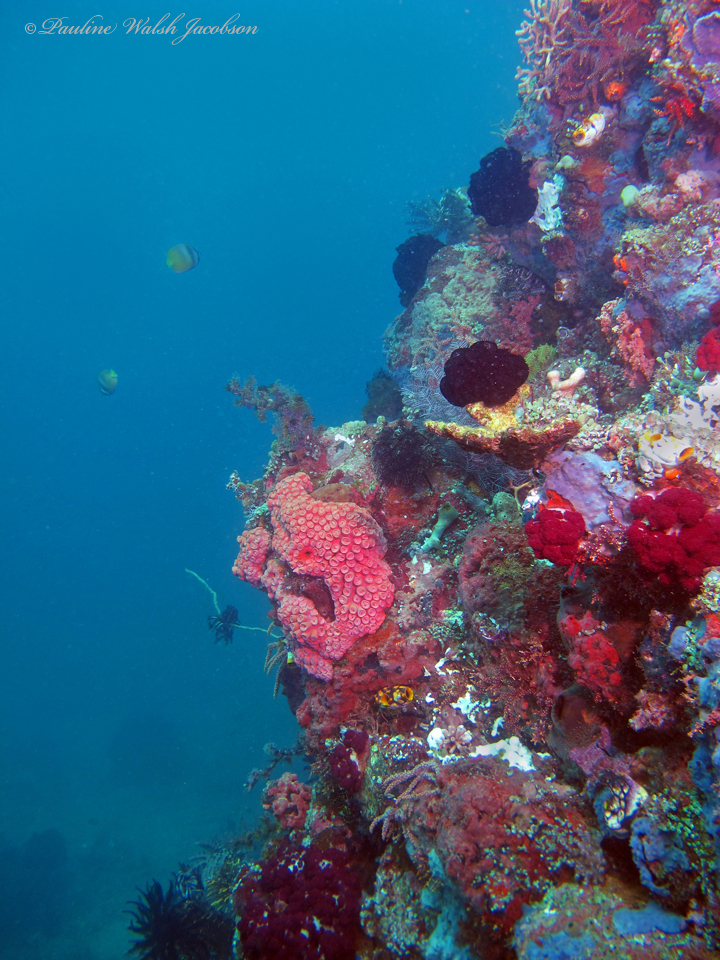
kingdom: Animalia
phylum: Cnidaria
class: Anthozoa
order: Scleractinia
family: Dendrophylliidae
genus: Tubastraea
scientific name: Tubastraea coccinea
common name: Orange cup coral
